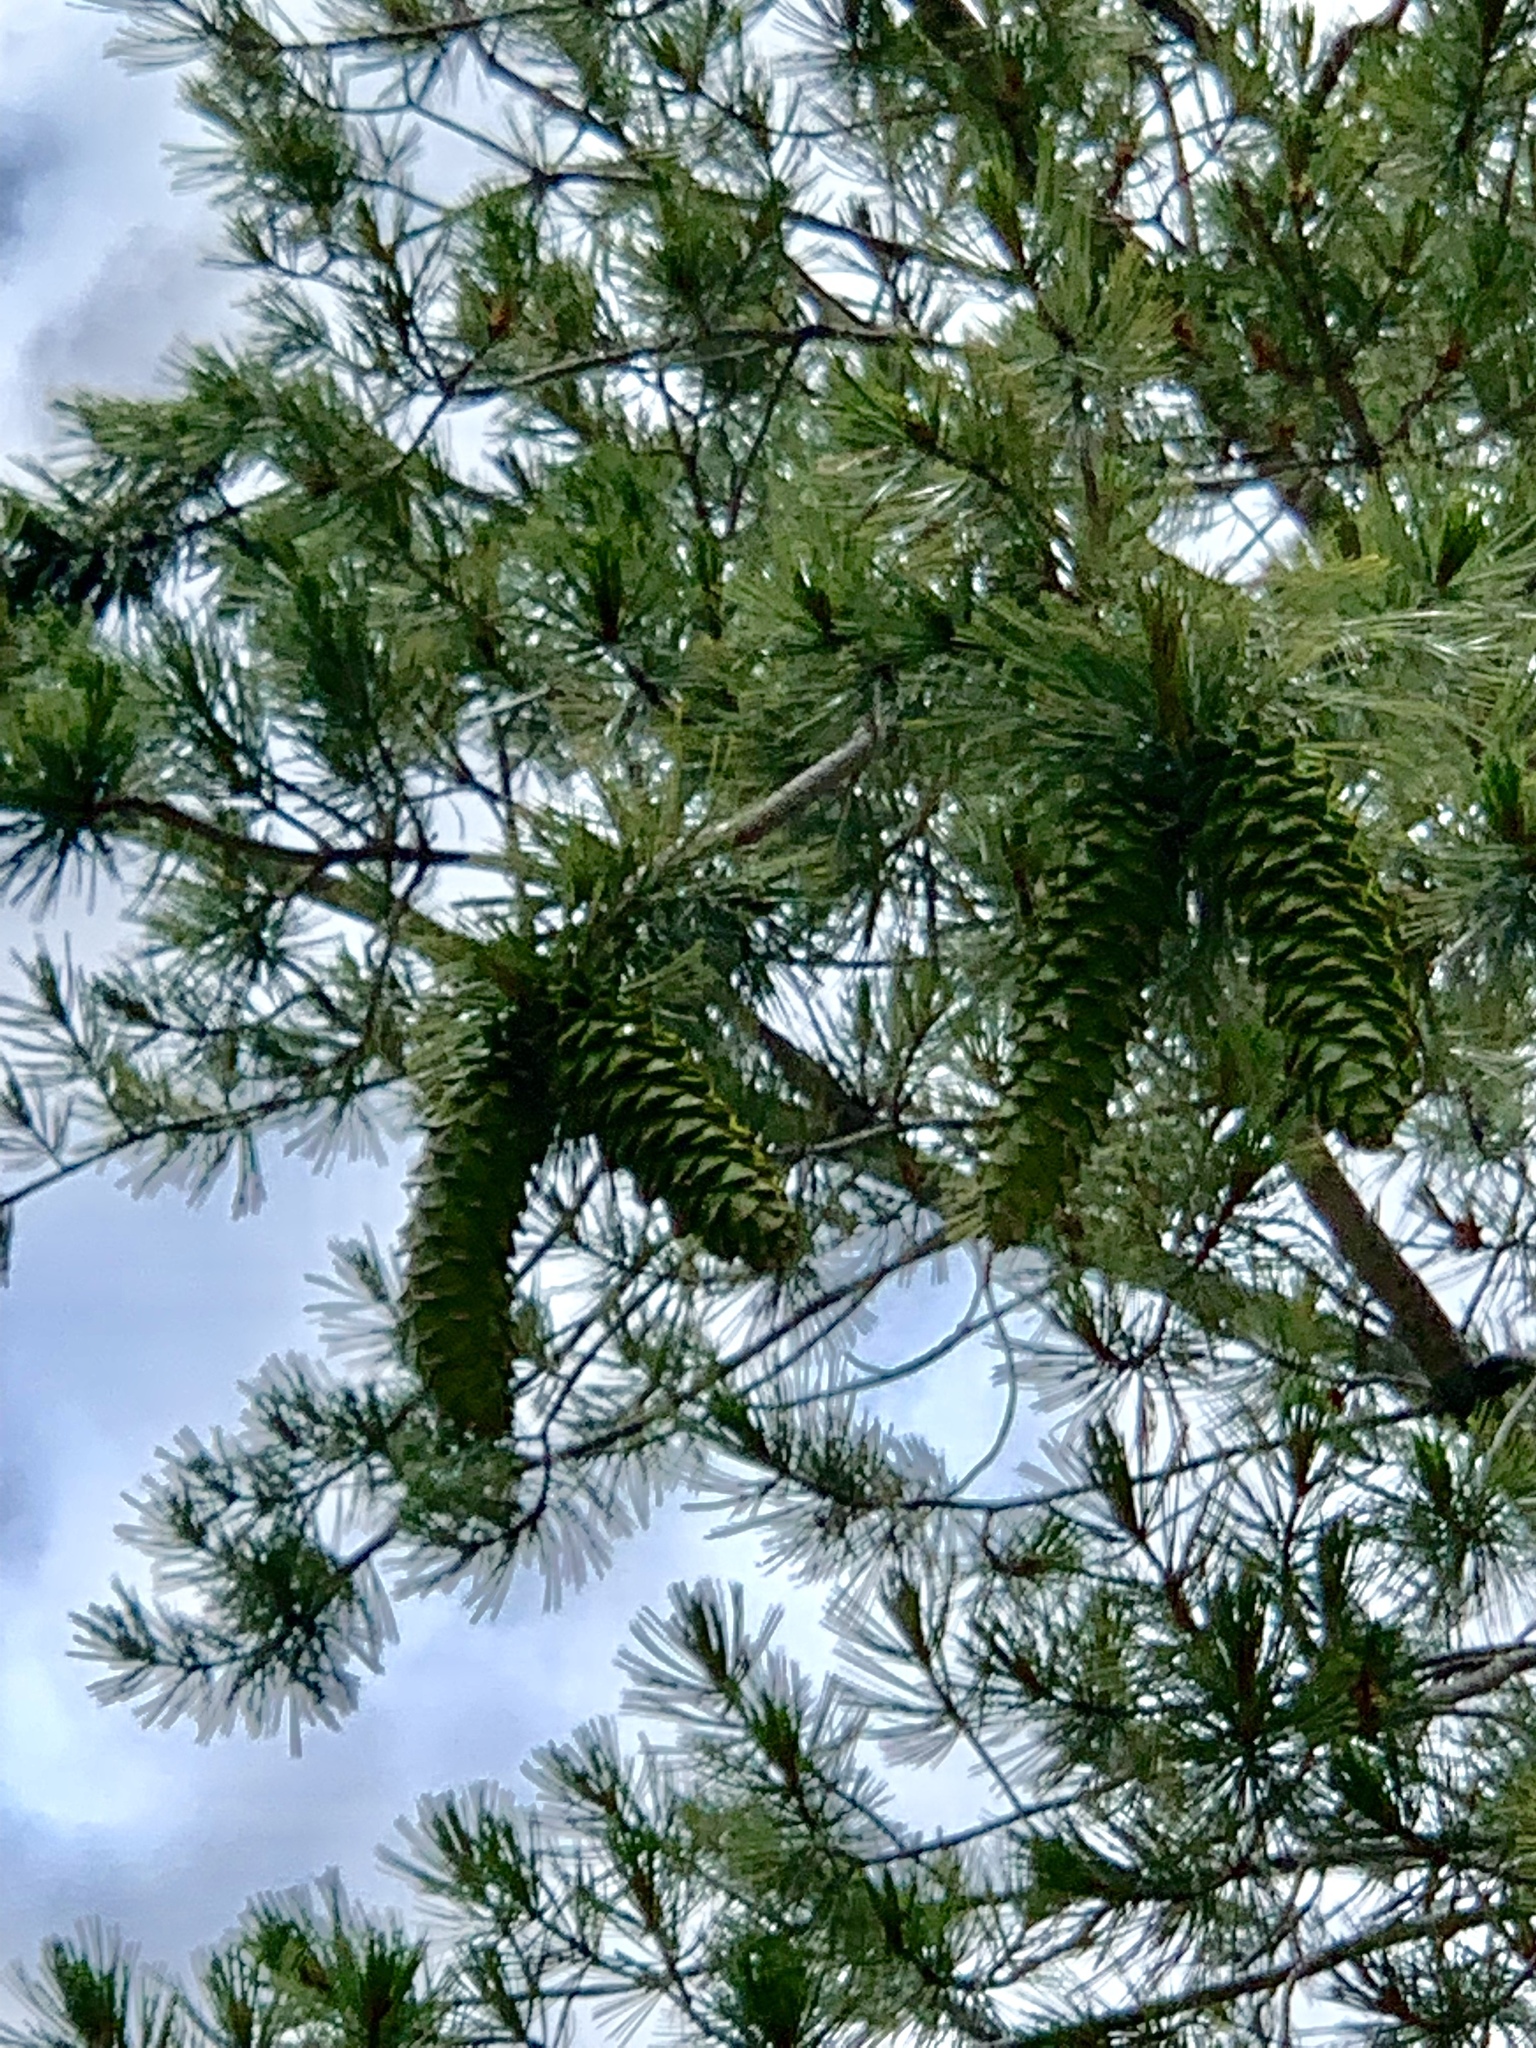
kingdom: Plantae
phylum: Tracheophyta
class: Pinopsida
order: Pinales
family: Pinaceae
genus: Pinus
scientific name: Pinus strobiformis
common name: Southwestern white pine
